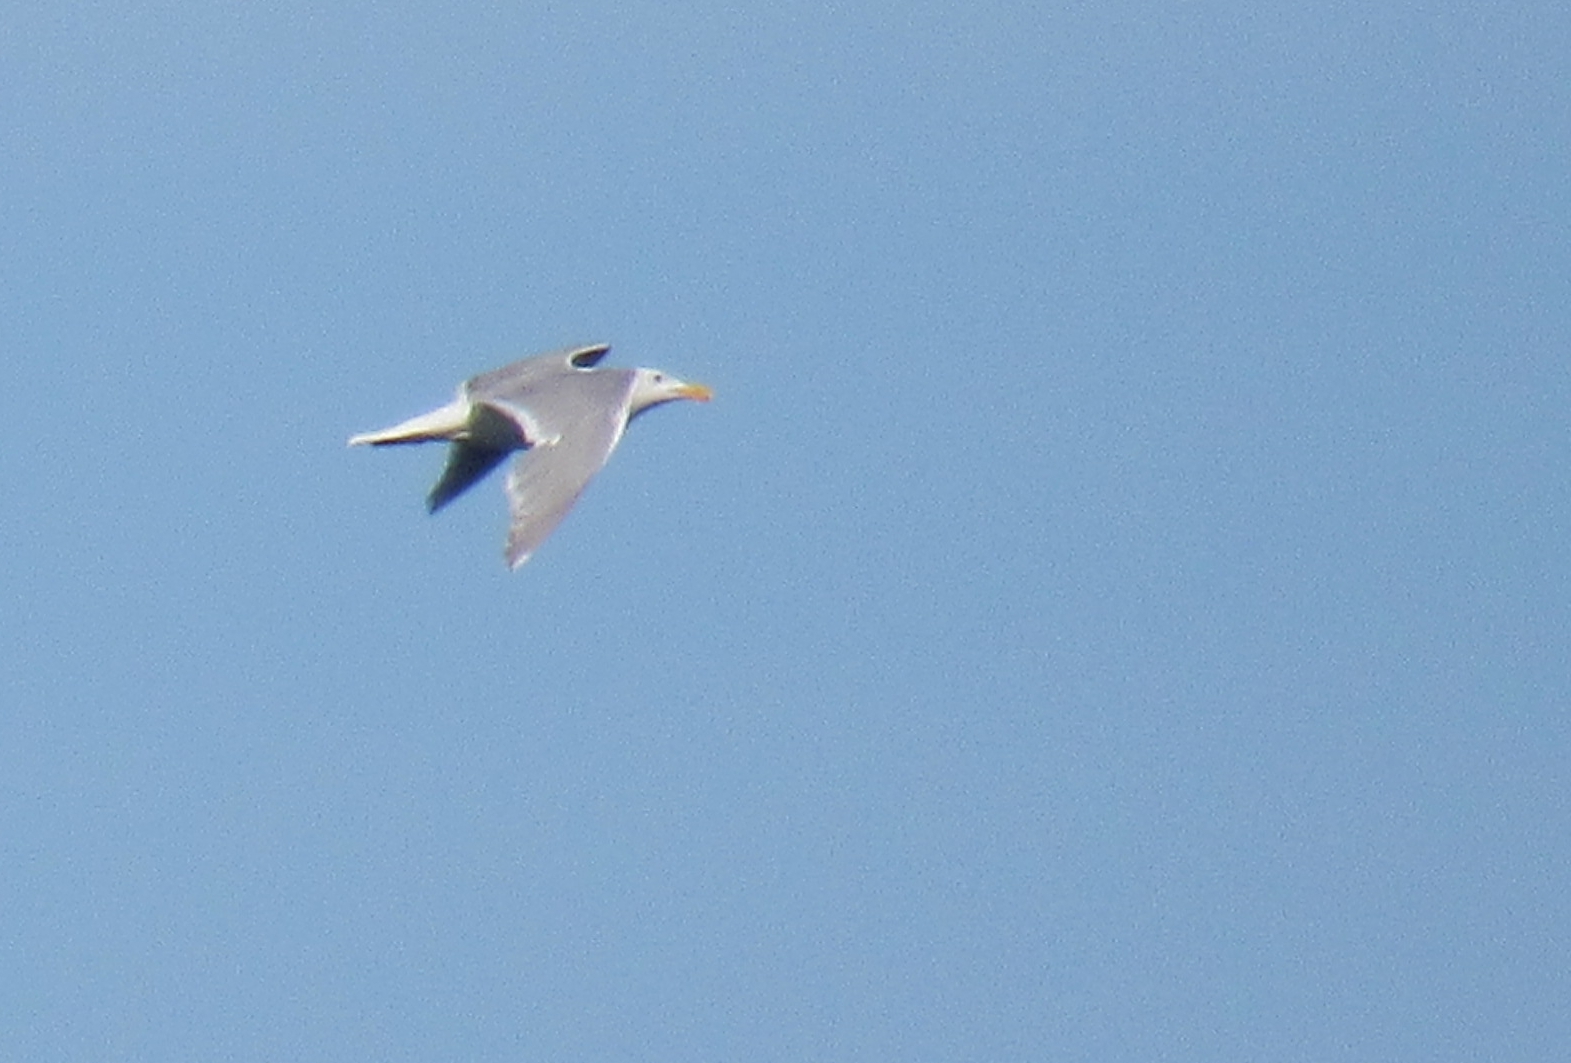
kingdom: Animalia
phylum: Chordata
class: Aves
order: Charadriiformes
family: Laridae
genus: Larus
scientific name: Larus glaucescens
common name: Glaucous-winged gull
